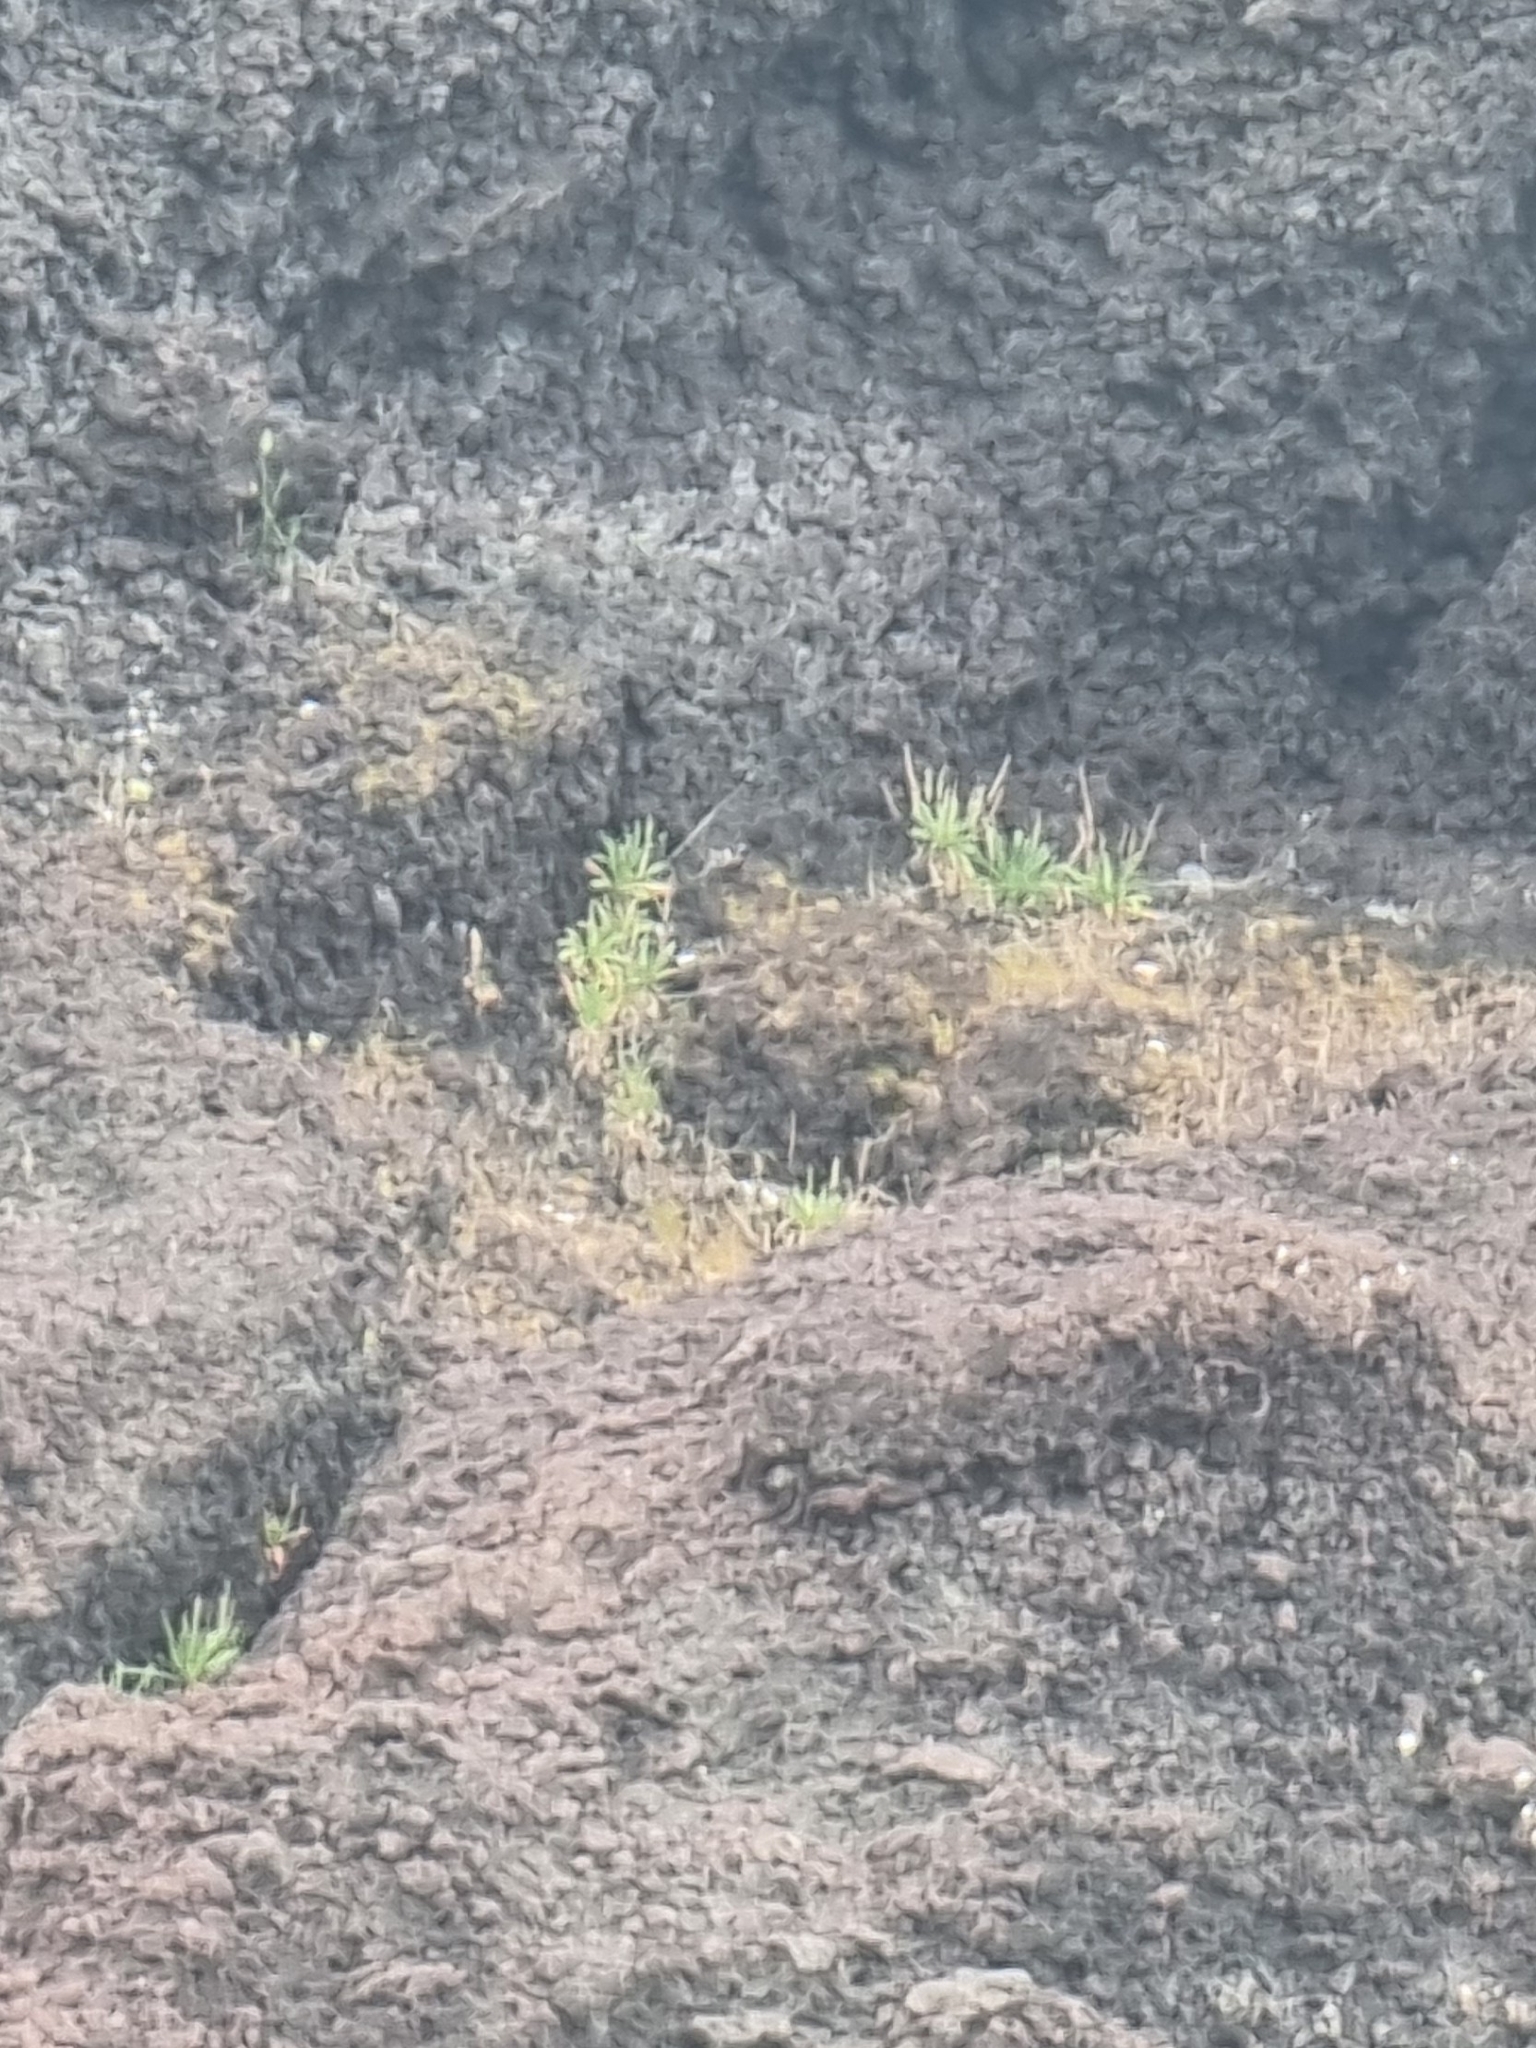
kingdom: Plantae
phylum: Tracheophyta
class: Magnoliopsida
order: Lamiales
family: Plantaginaceae
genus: Plantago
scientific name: Plantago coronopus
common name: Buck's-horn plantain
